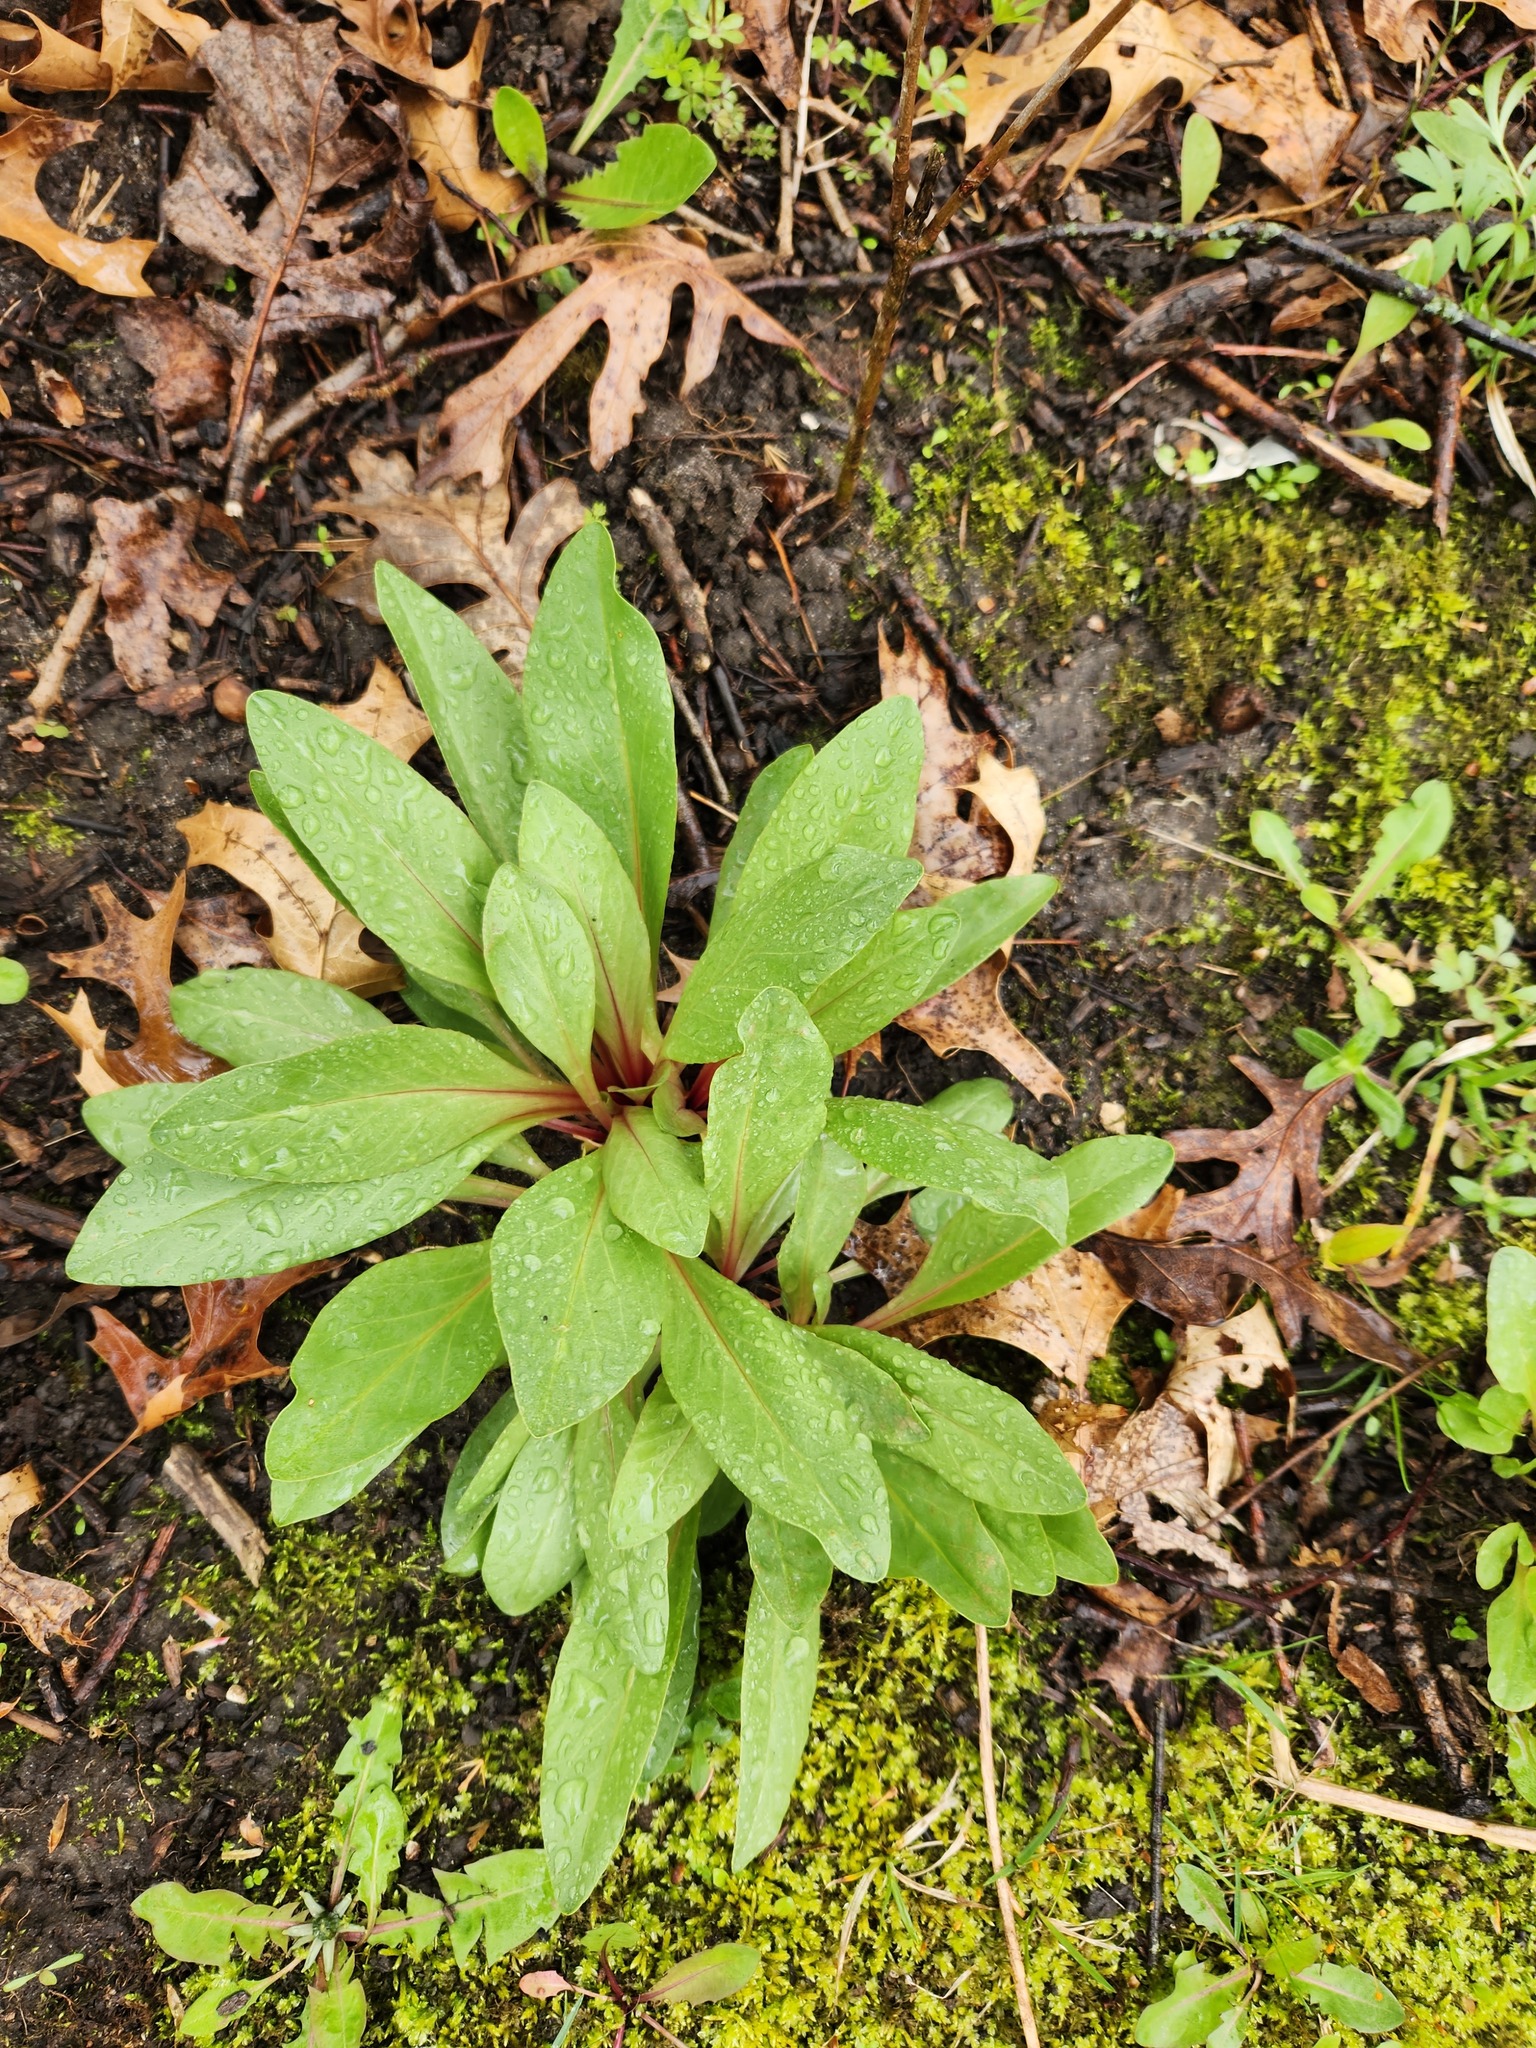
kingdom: Plantae
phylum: Tracheophyta
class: Magnoliopsida
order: Ericales
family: Primulaceae
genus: Dodecatheon
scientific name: Dodecatheon meadia
